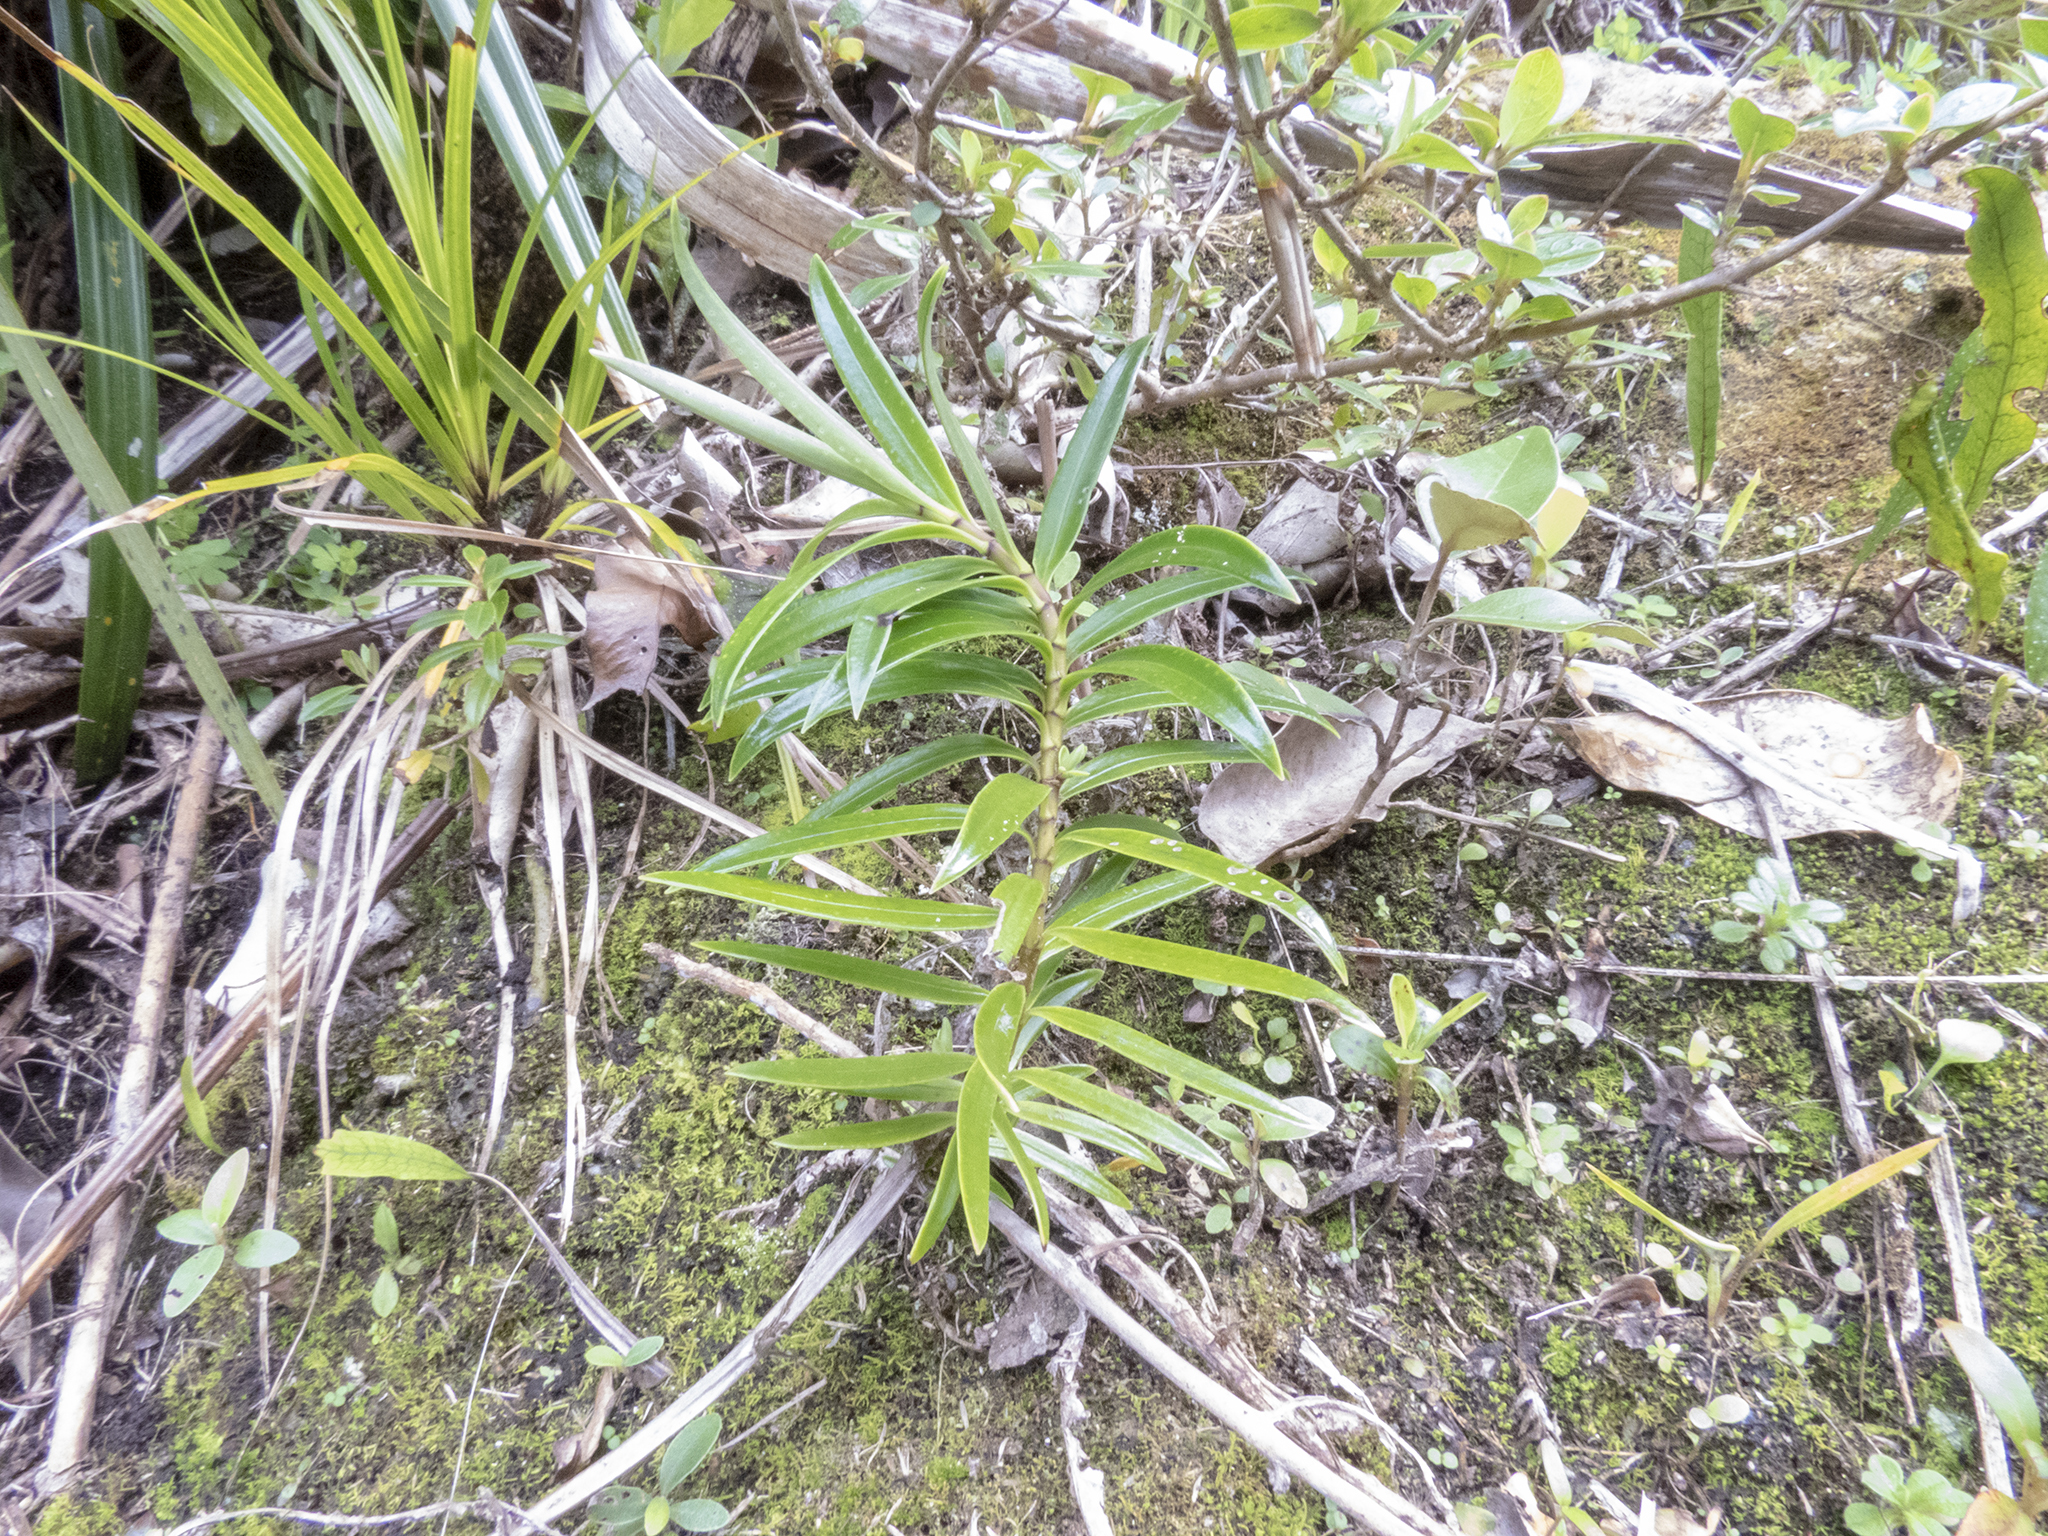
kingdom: Plantae
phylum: Tracheophyta
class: Magnoliopsida
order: Lamiales
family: Plantaginaceae
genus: Veronica
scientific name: Veronica townsonii
